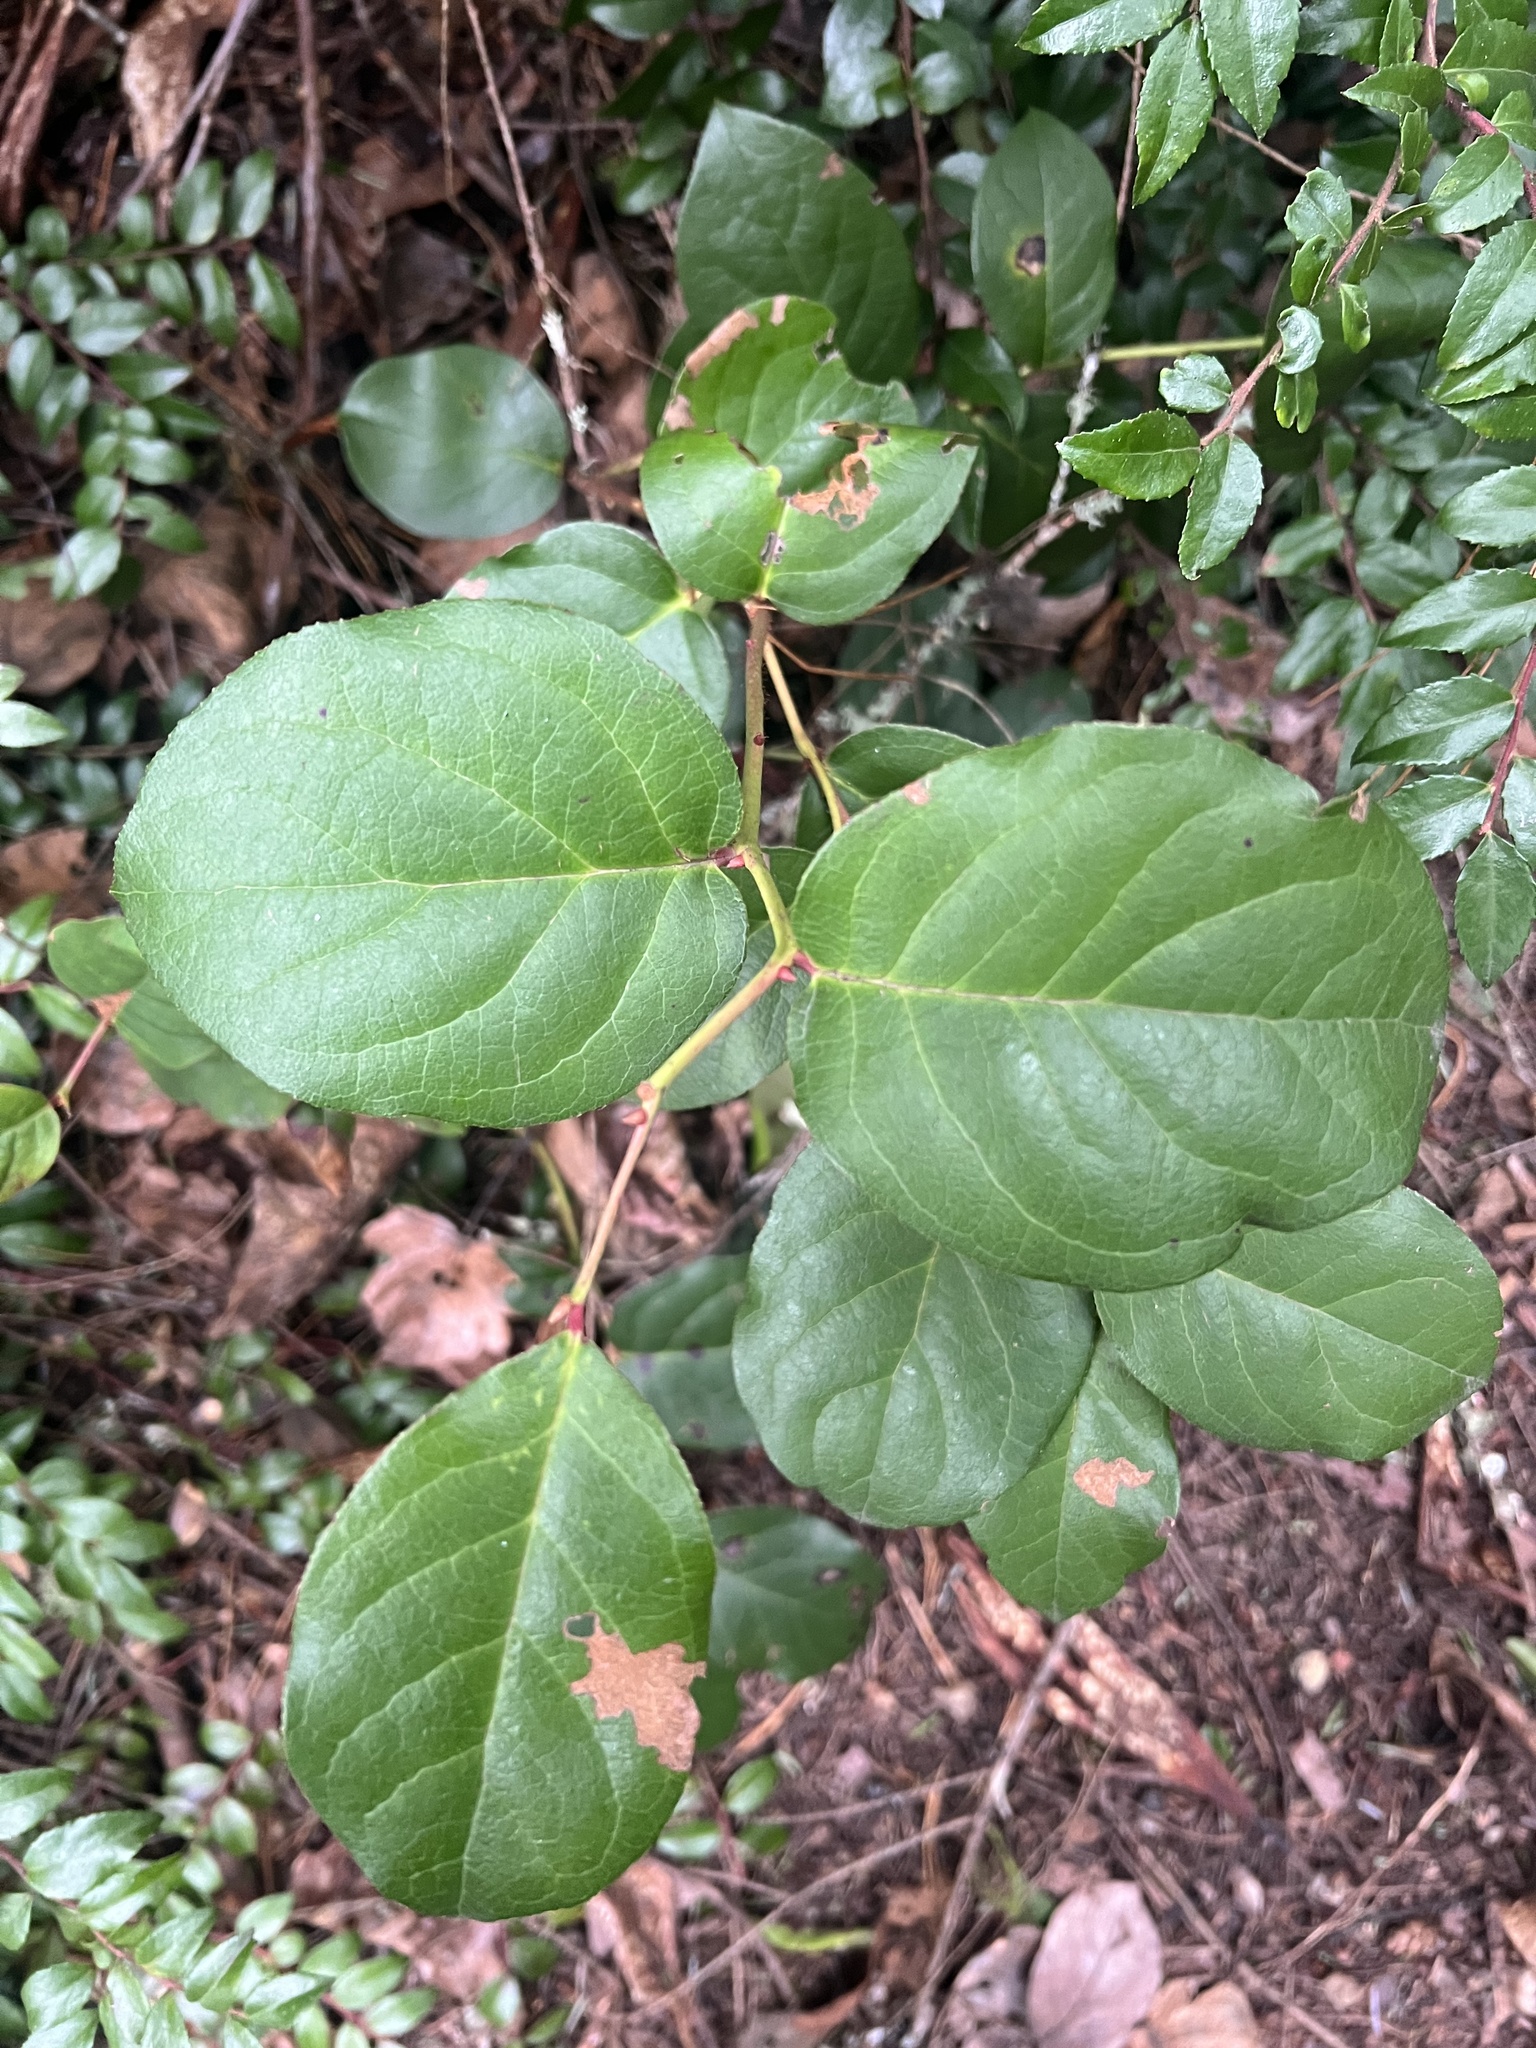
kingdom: Plantae
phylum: Tracheophyta
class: Magnoliopsida
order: Ericales
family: Ericaceae
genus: Gaultheria
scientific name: Gaultheria shallon
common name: Shallon
